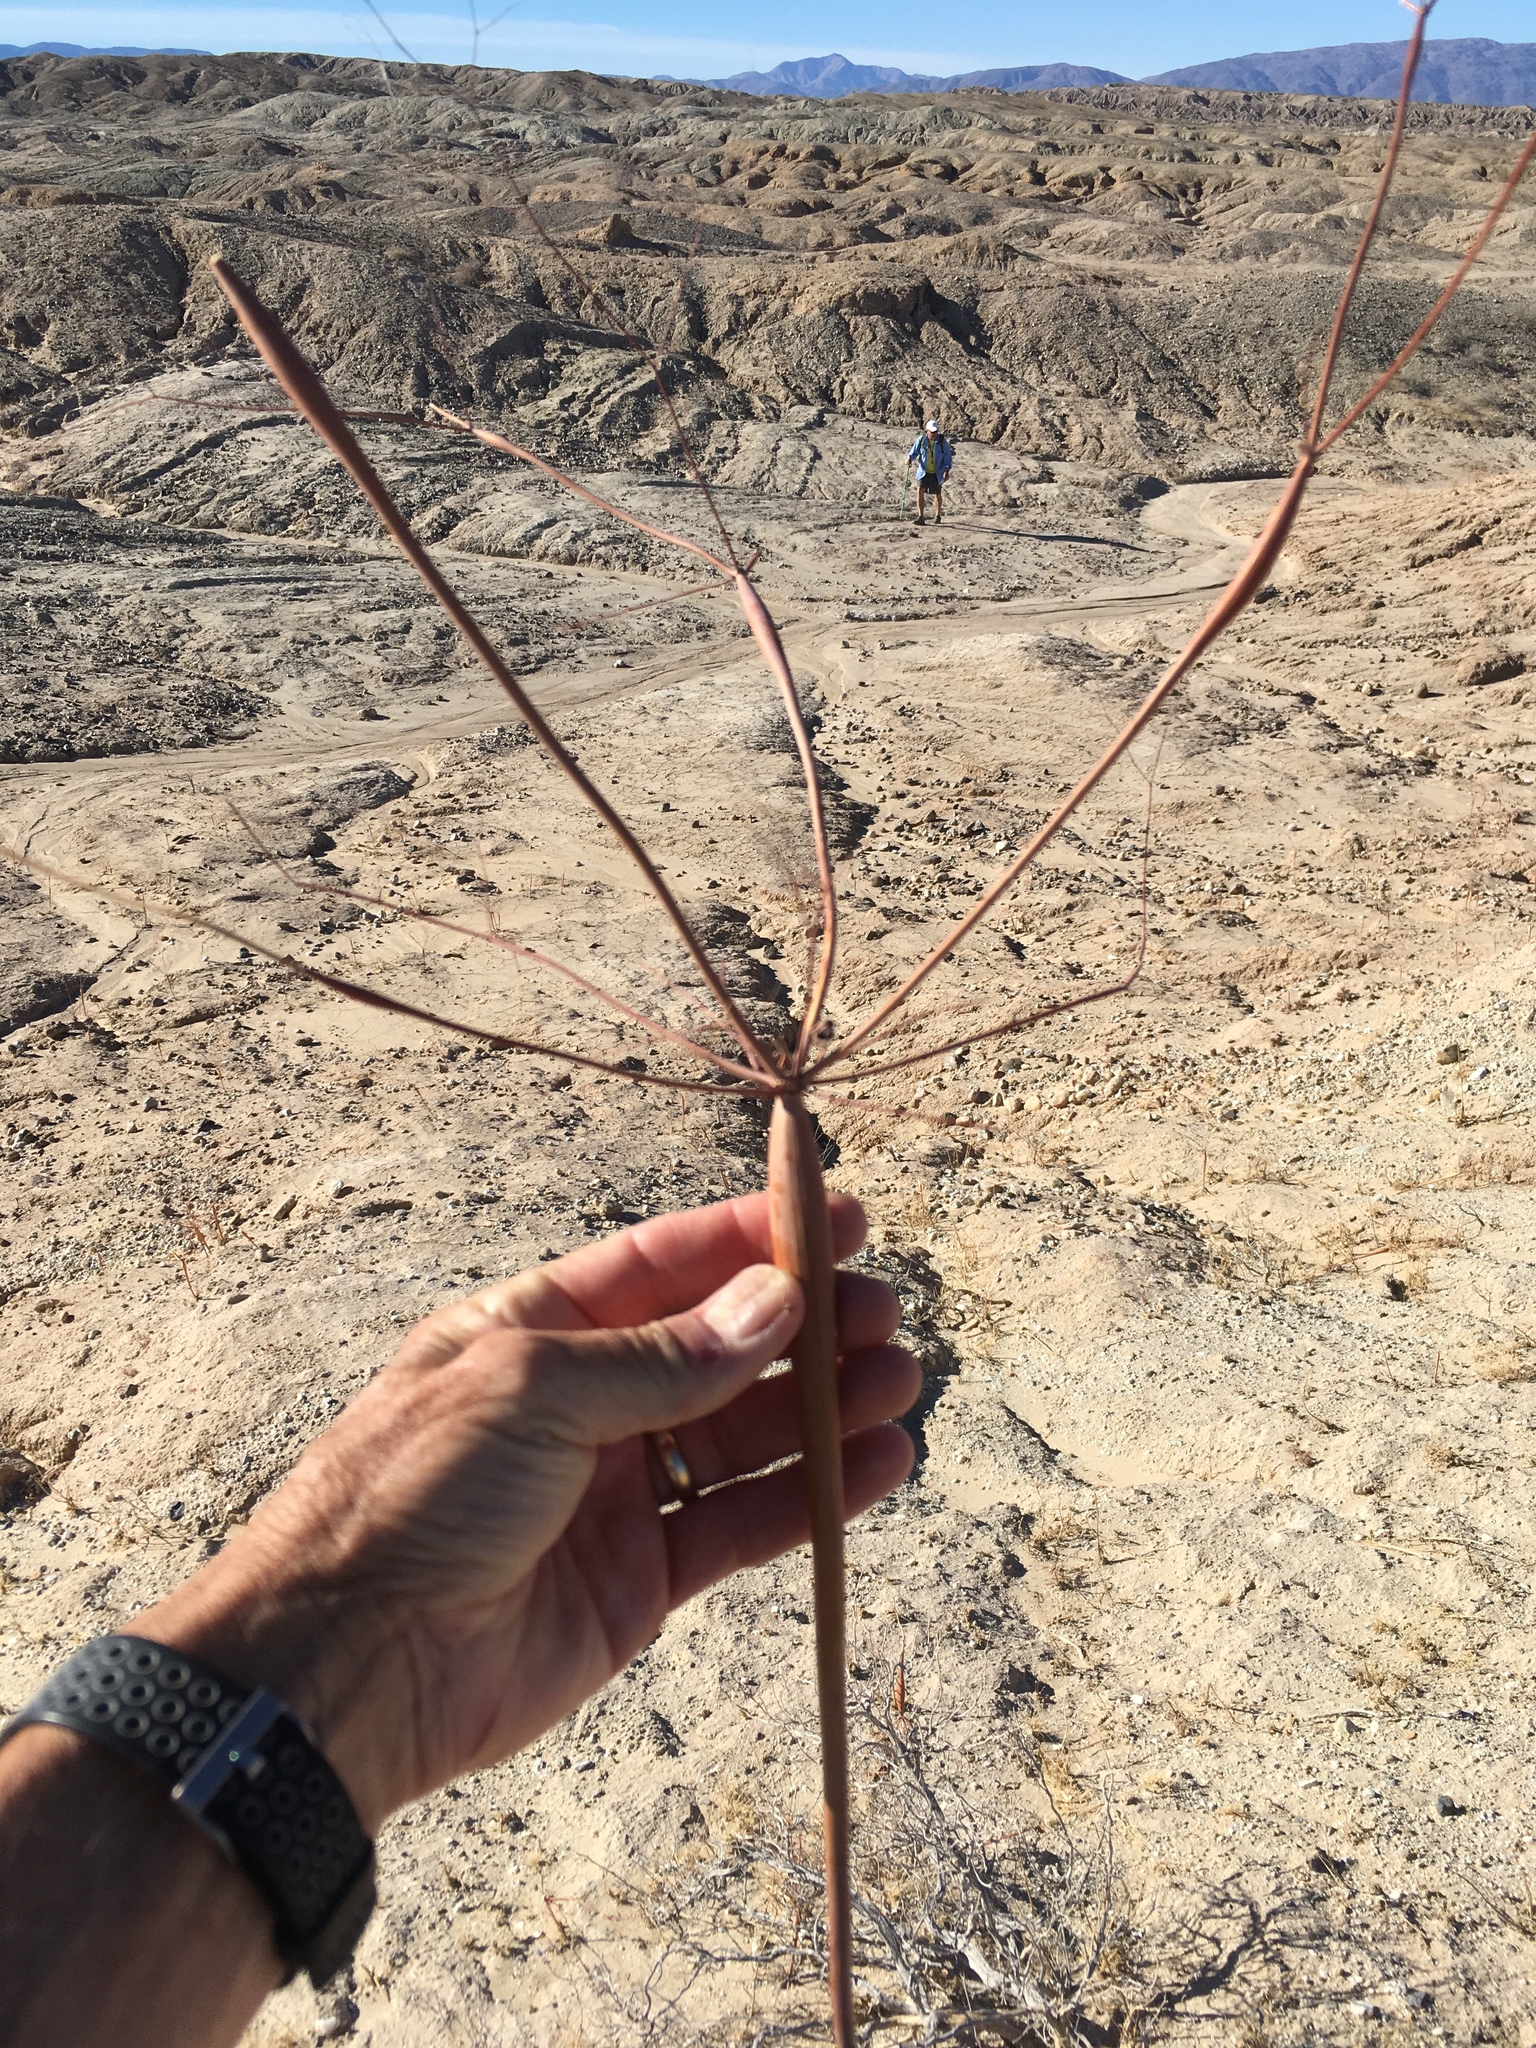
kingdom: Plantae
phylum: Tracheophyta
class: Magnoliopsida
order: Caryophyllales
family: Polygonaceae
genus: Eriogonum
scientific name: Eriogonum trichopes
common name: Little desert trumpet
